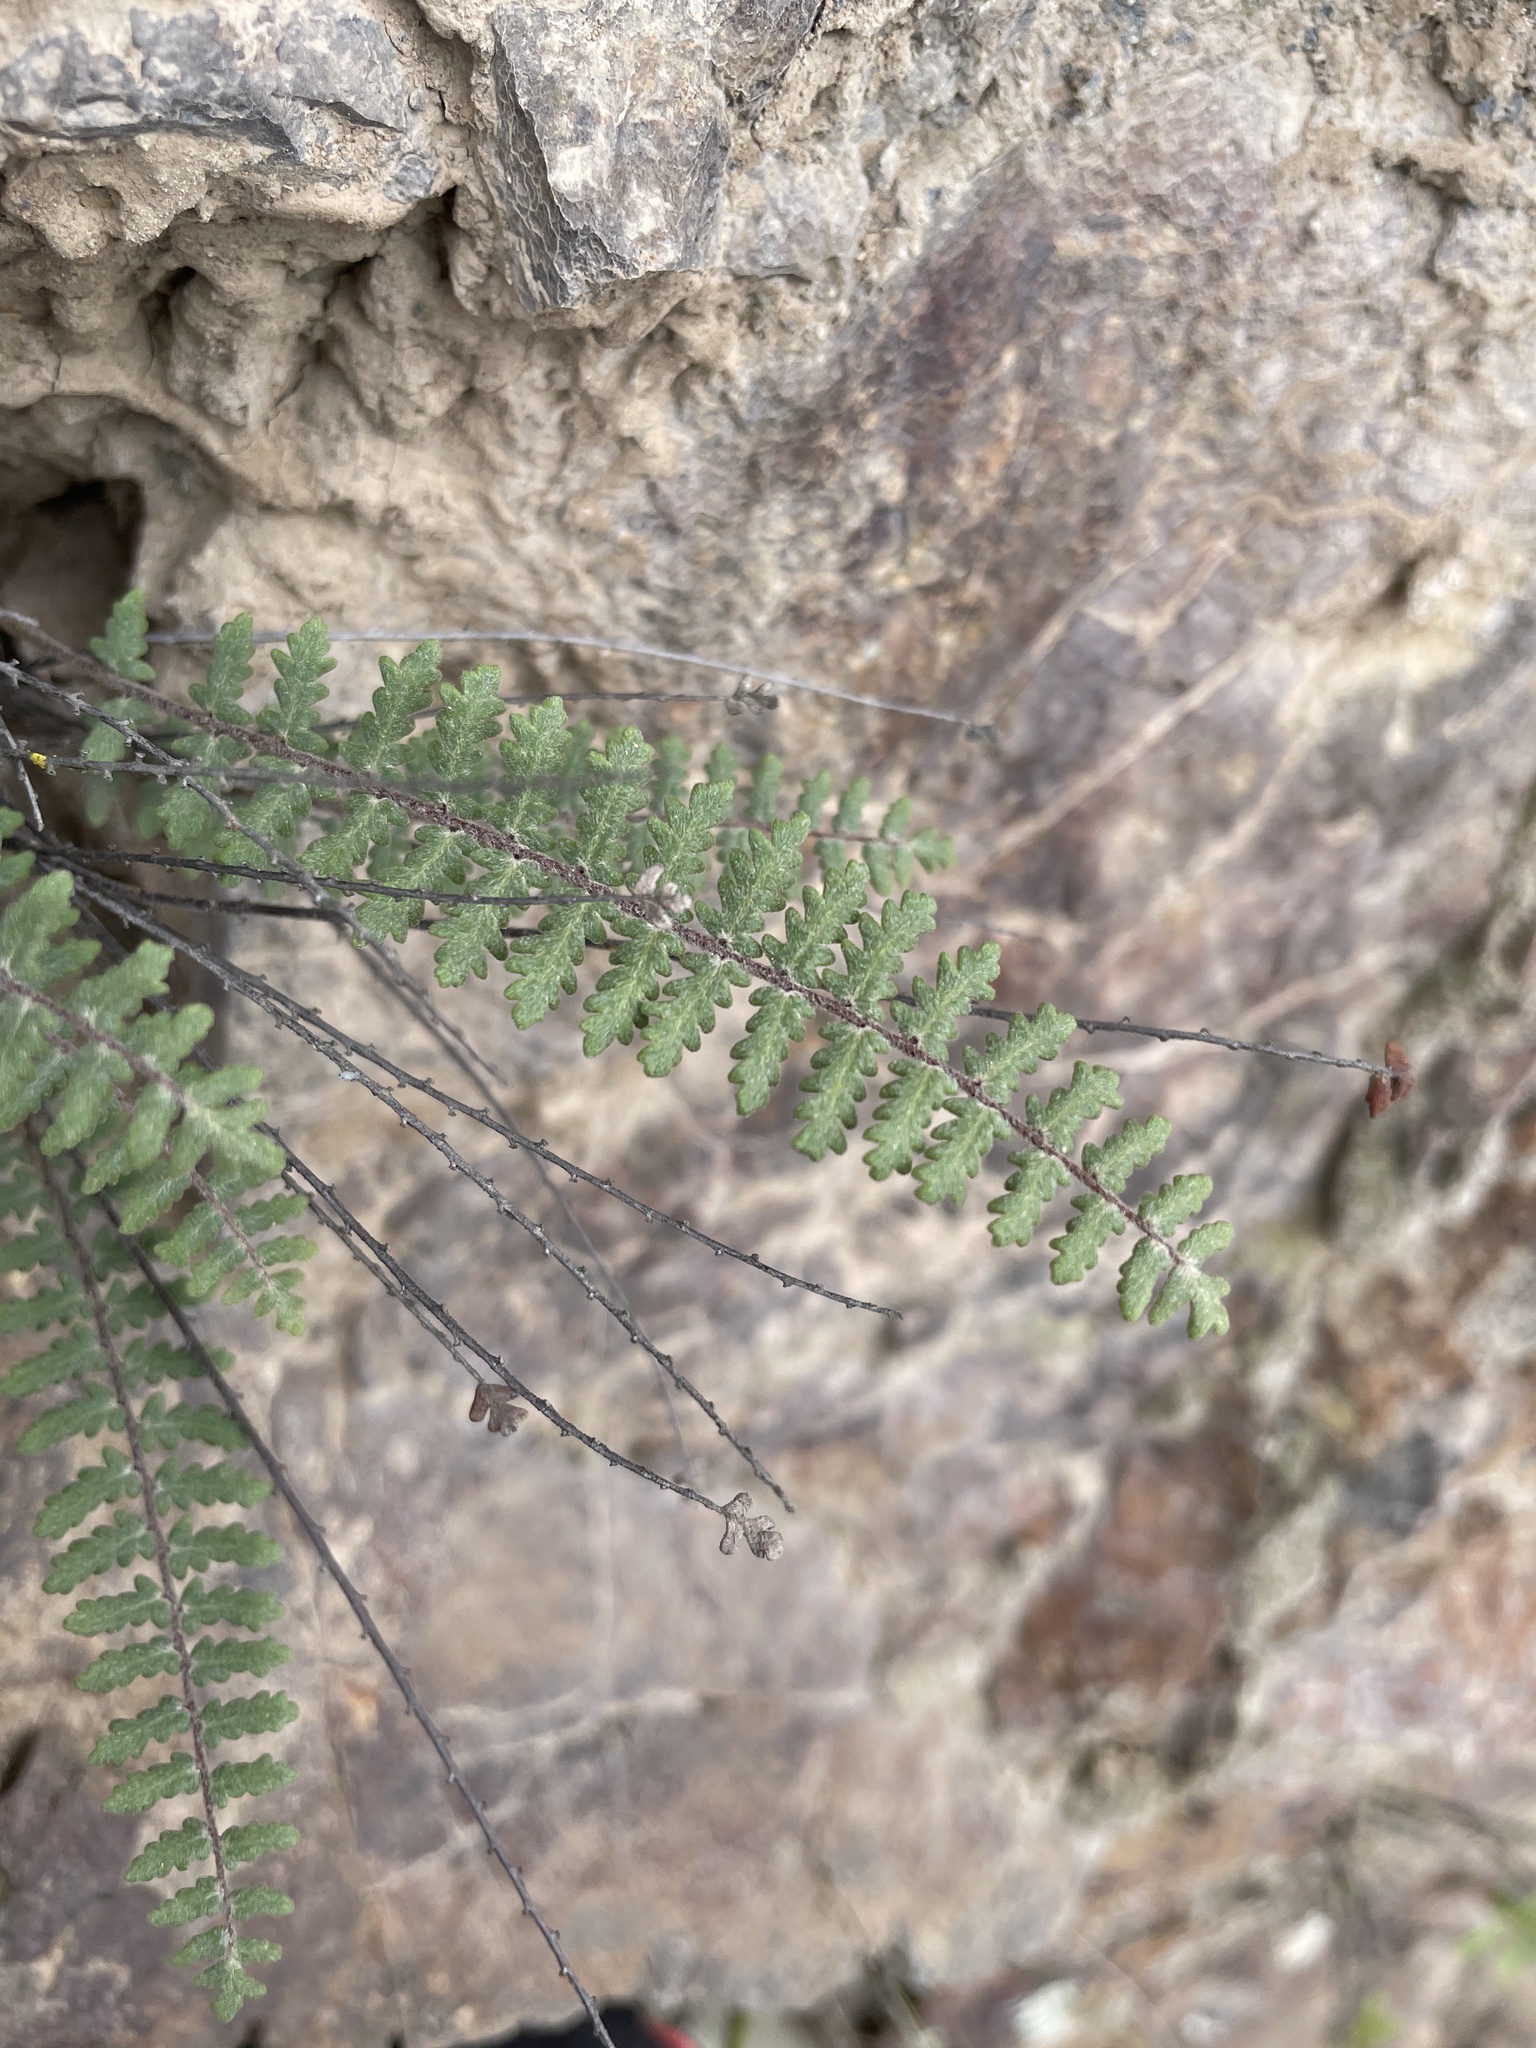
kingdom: Plantae
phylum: Tracheophyta
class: Polypodiopsida
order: Polypodiales
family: Pteridaceae
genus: Myriopteris
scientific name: Myriopteris aurea
